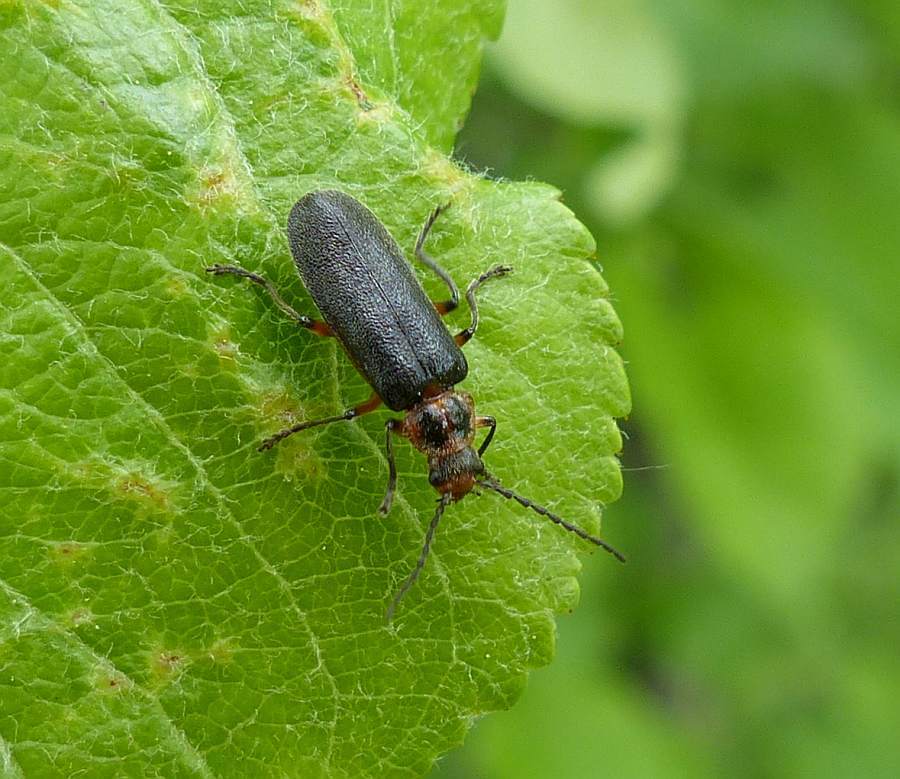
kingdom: Animalia
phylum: Arthropoda
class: Insecta
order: Coleoptera
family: Cantharidae
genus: Atalantycha
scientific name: Atalantycha bilineata
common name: Two-lined leatherwing
